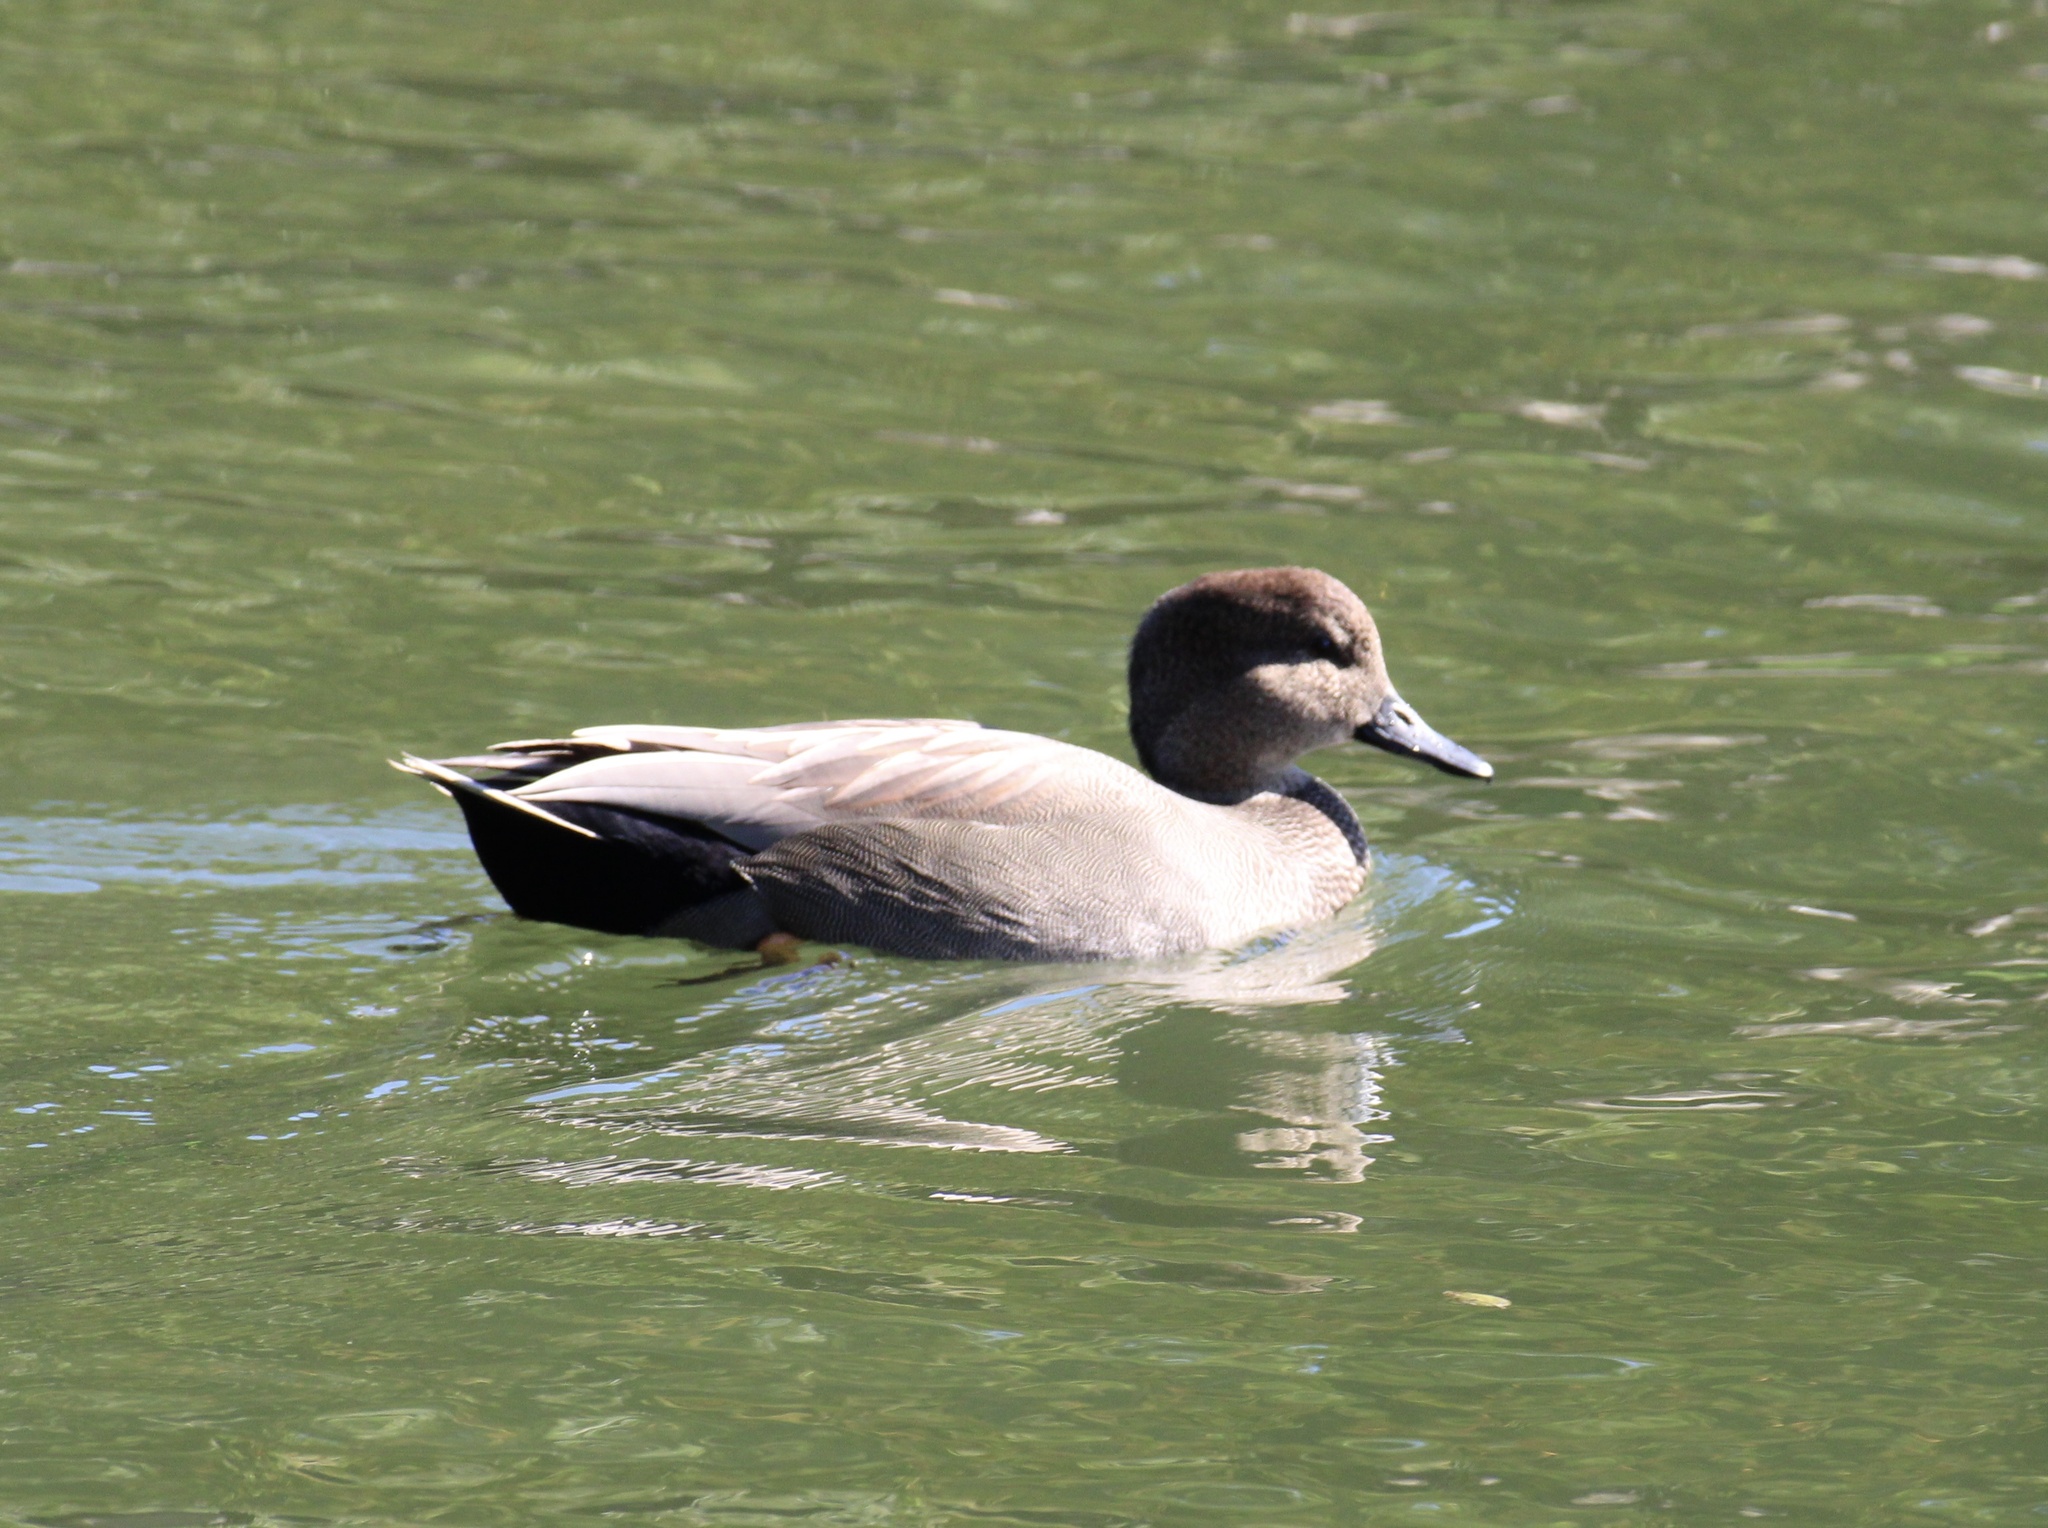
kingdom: Animalia
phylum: Chordata
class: Aves
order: Anseriformes
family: Anatidae
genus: Mareca
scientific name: Mareca strepera
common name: Gadwall
